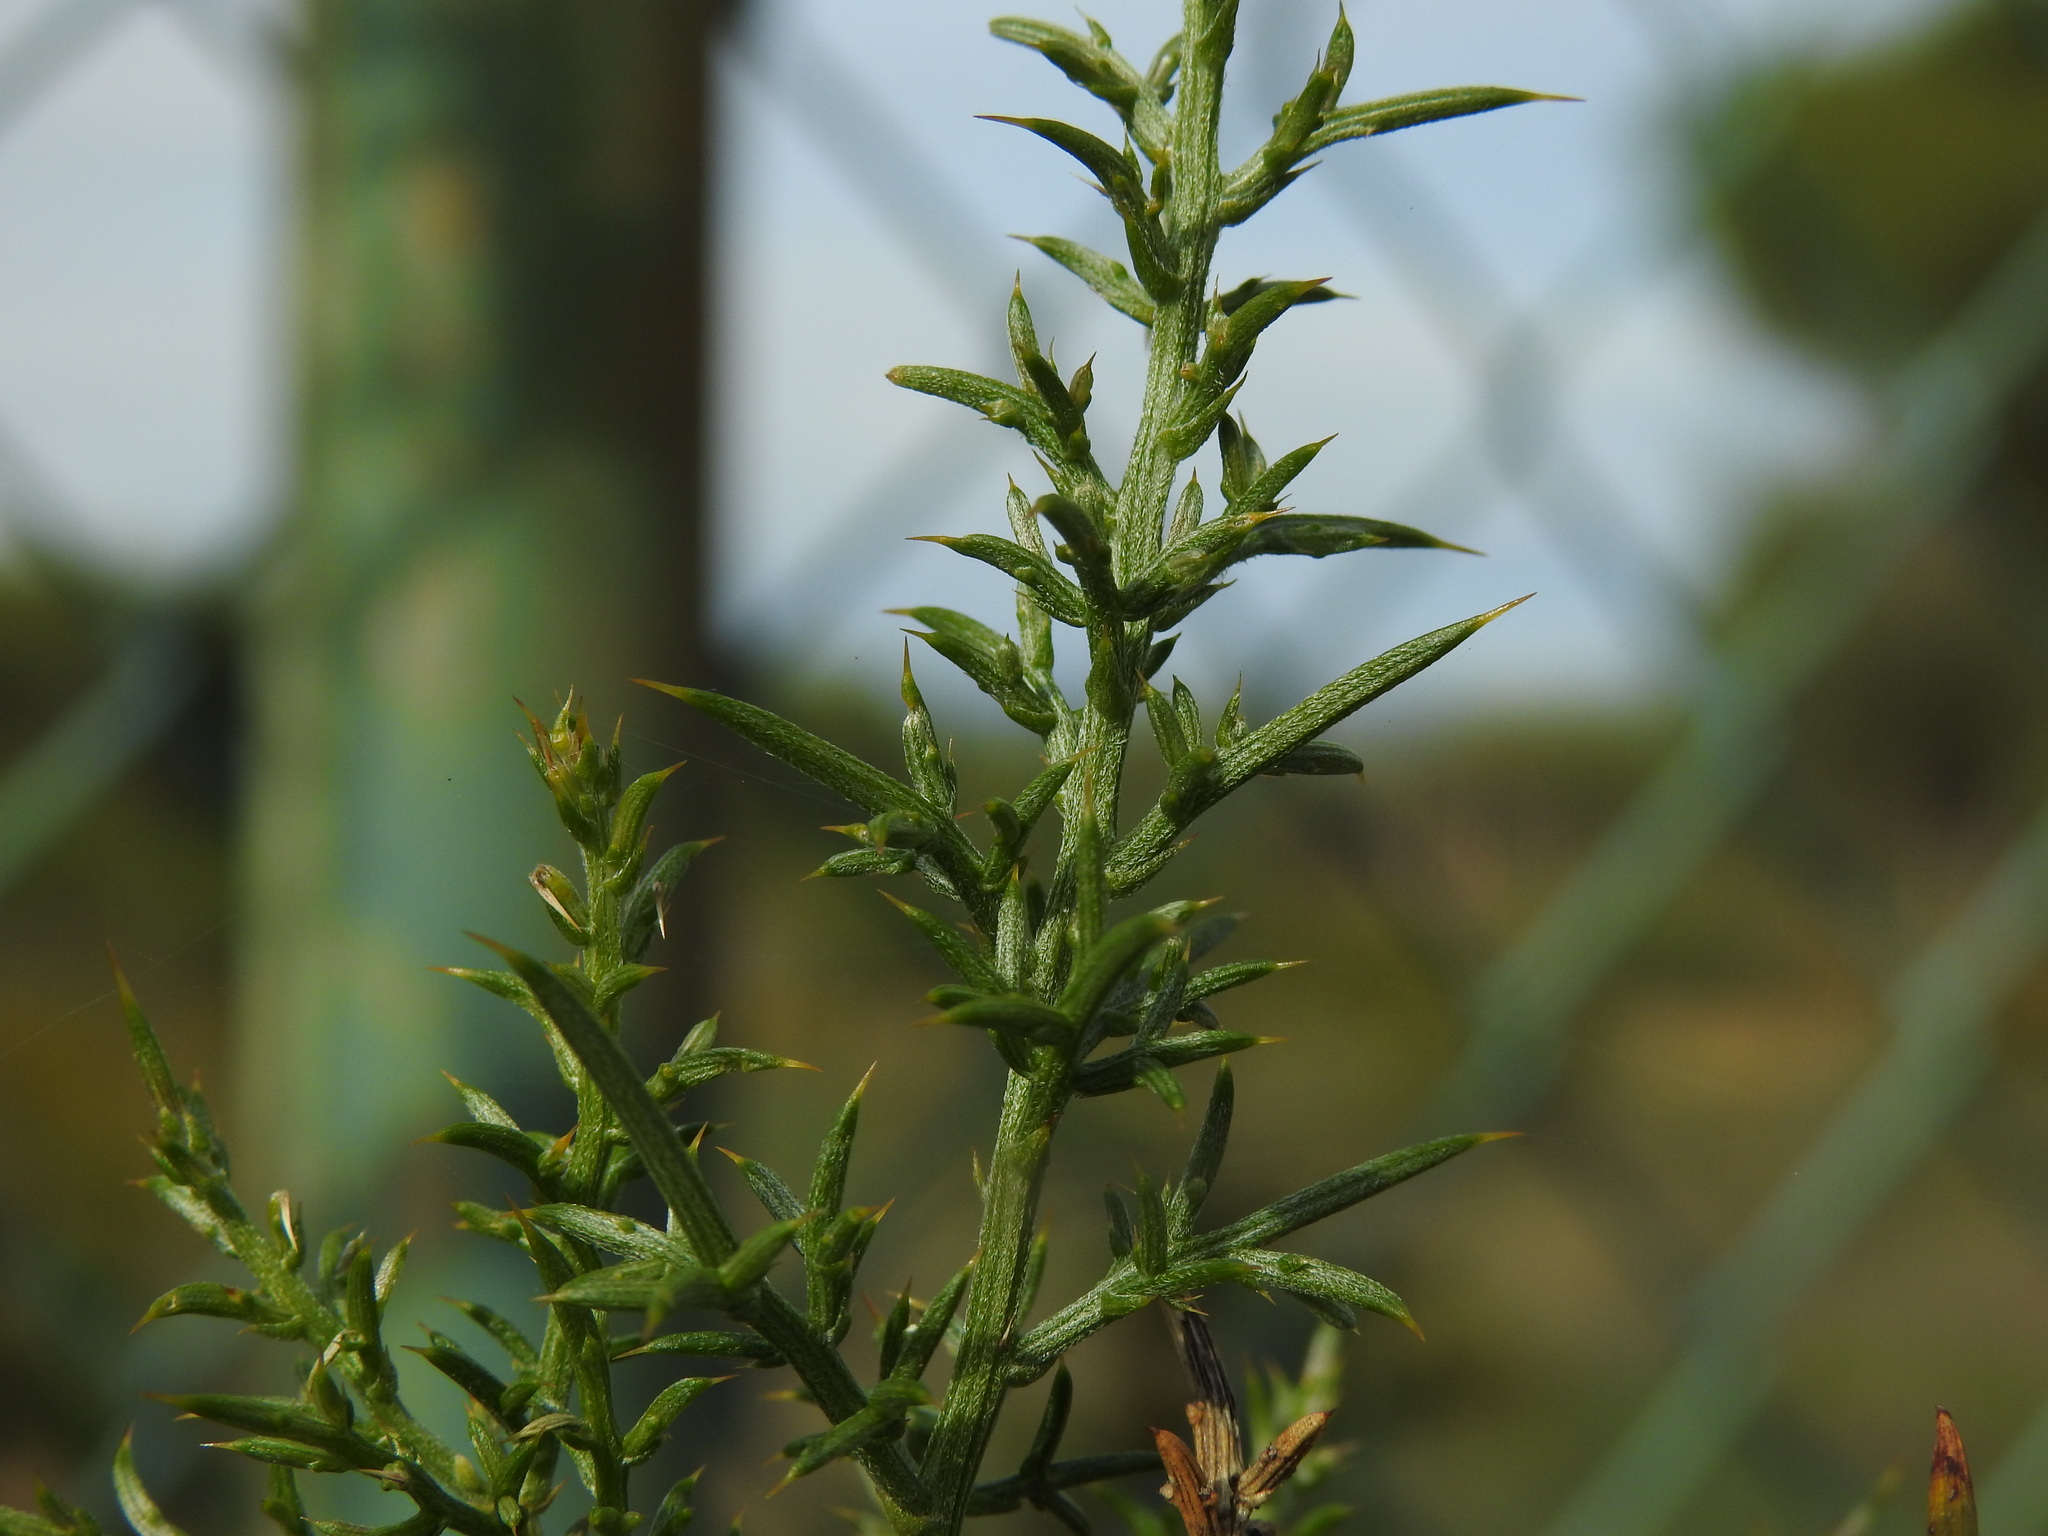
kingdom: Plantae
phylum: Tracheophyta
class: Magnoliopsida
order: Fabales
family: Fabaceae
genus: Ulex
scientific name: Ulex argenteus
